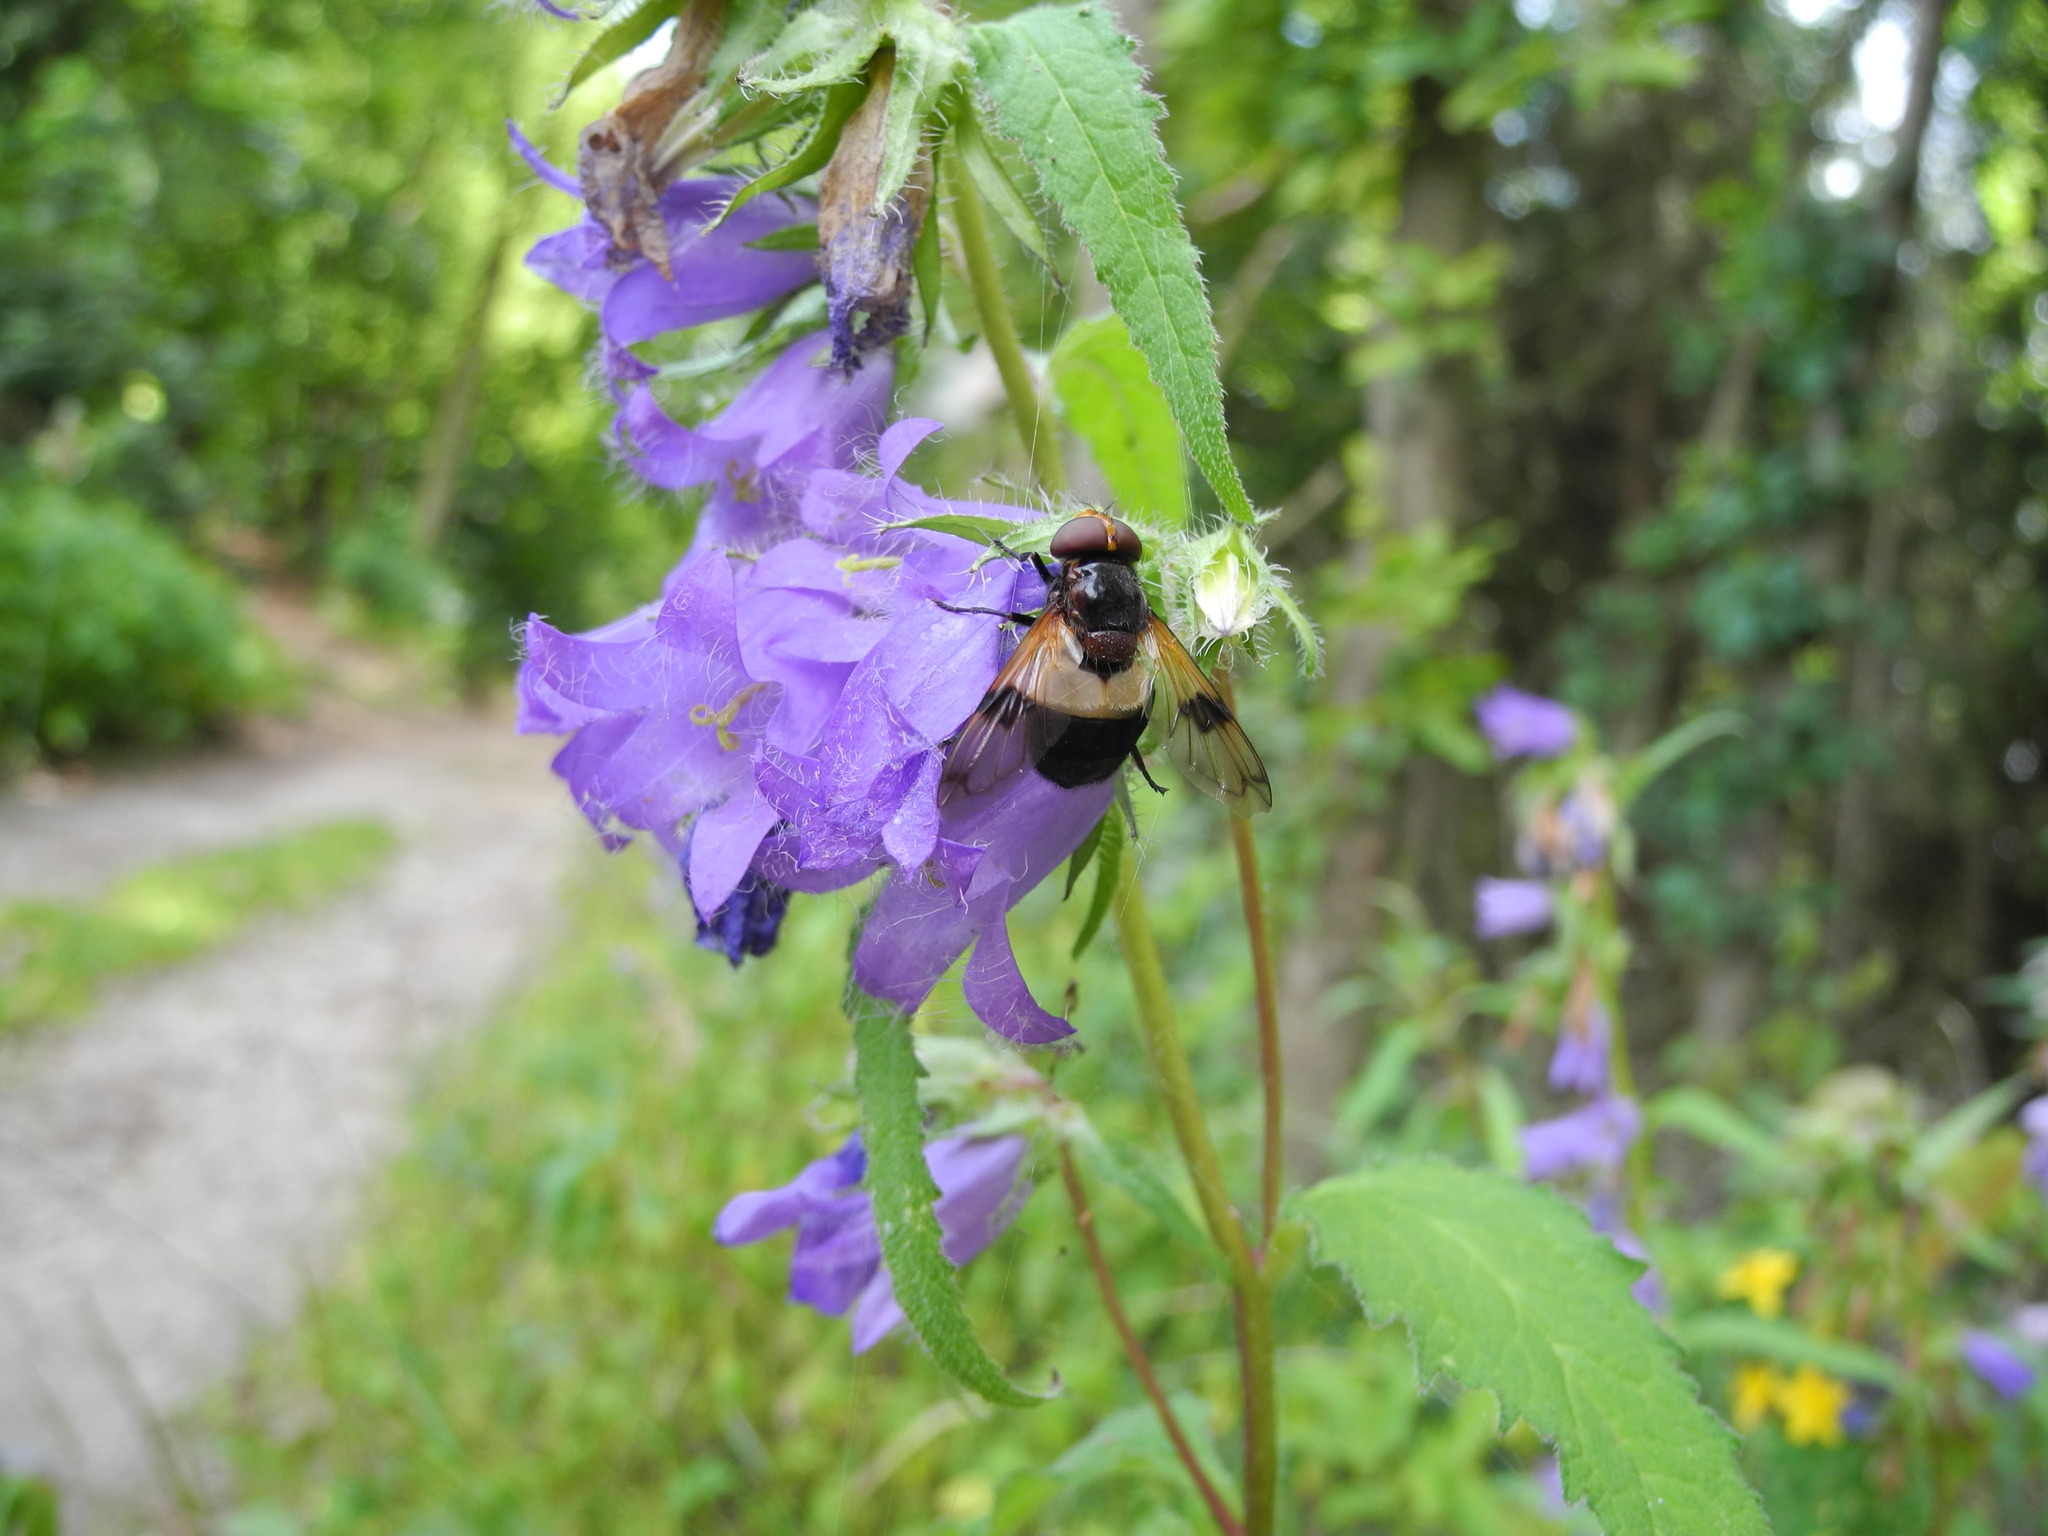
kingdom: Plantae
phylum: Tracheophyta
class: Magnoliopsida
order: Asterales
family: Campanulaceae
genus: Campanula
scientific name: Campanula trachelium
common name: Nettle-leaved bellflower
